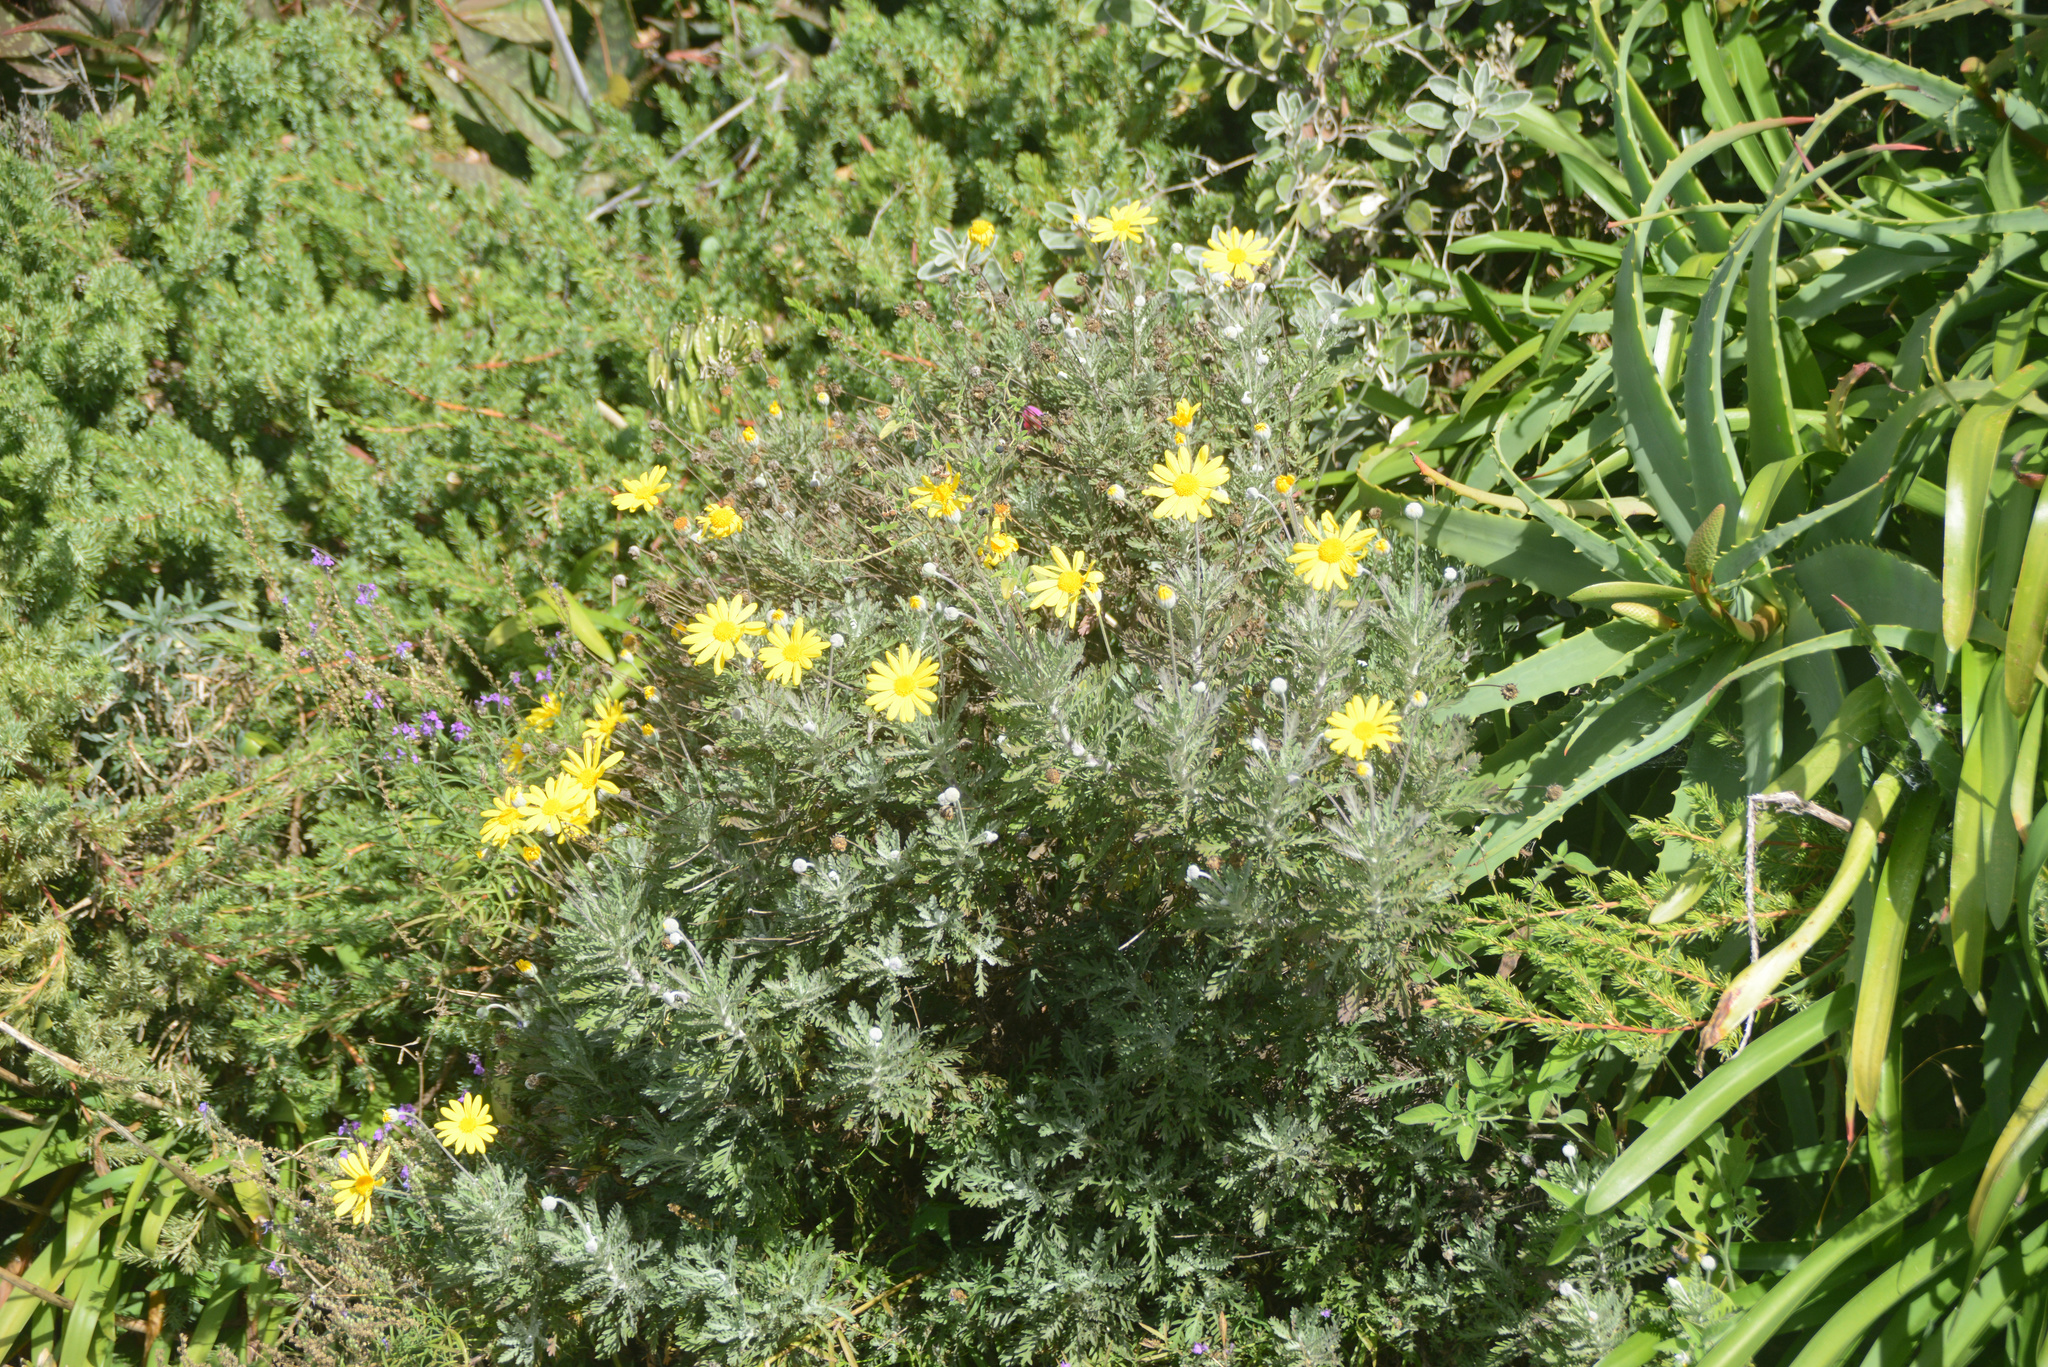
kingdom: Plantae
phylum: Tracheophyta
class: Magnoliopsida
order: Asterales
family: Asteraceae
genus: Euryops
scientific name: Euryops pectinatus
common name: Gray-leaf euryops
